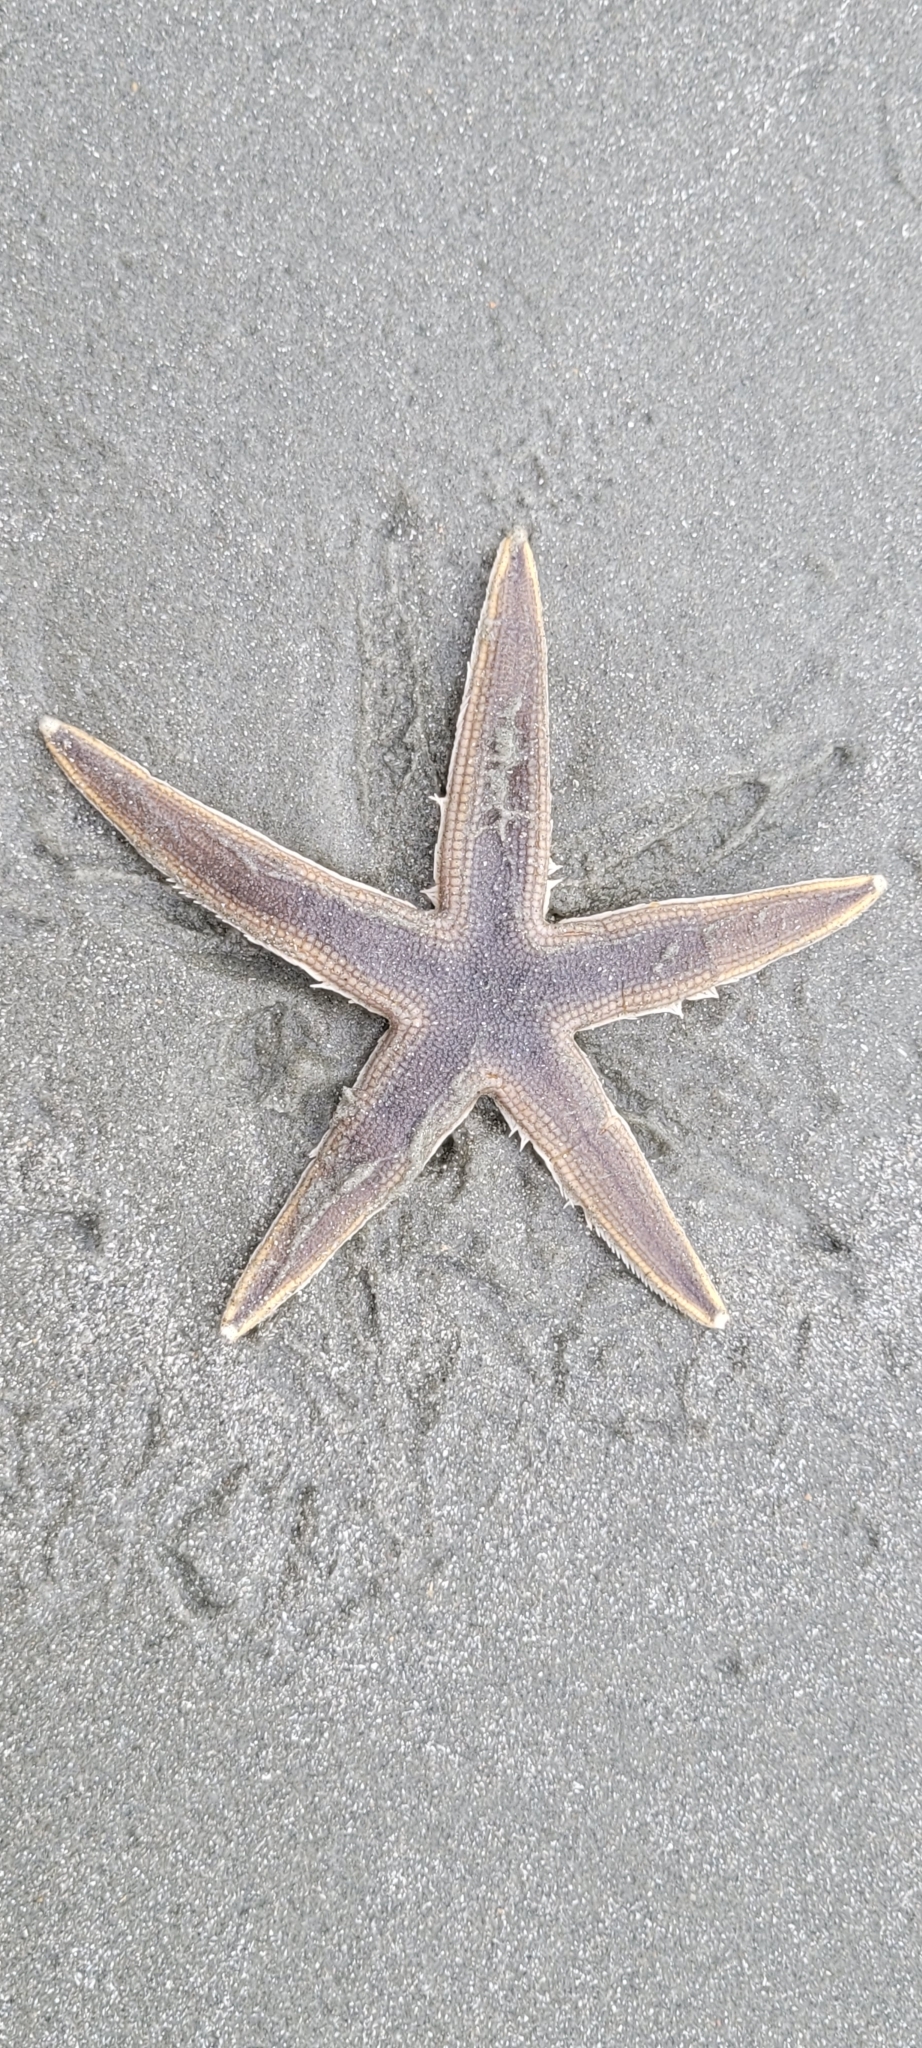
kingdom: Animalia
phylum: Echinodermata
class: Asteroidea
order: Paxillosida
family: Luidiidae
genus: Luidia
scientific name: Luidia clathrata
